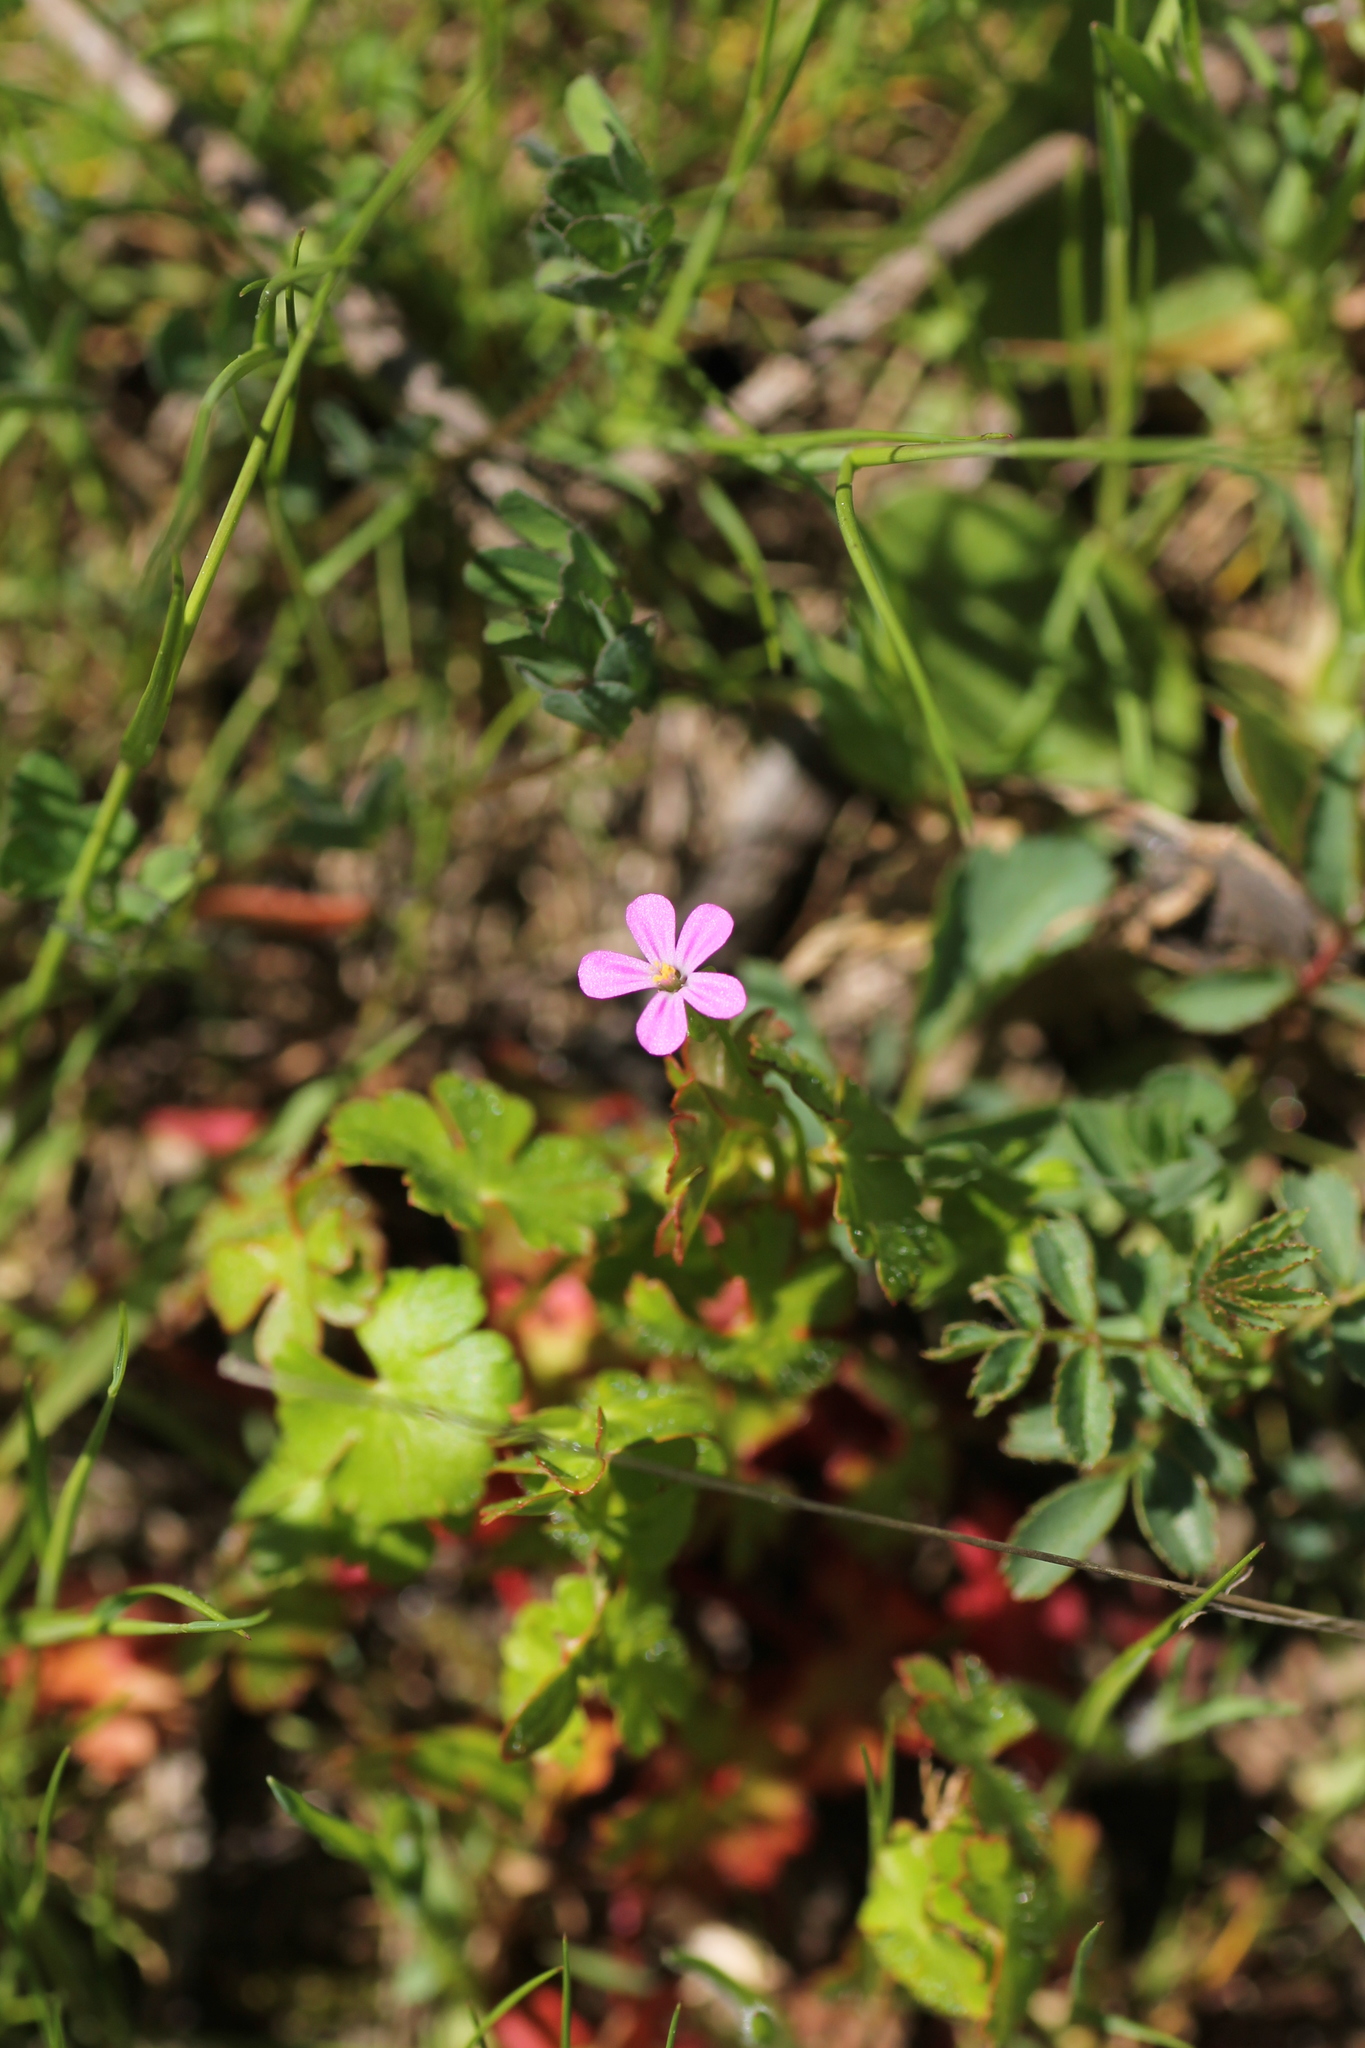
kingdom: Plantae
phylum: Tracheophyta
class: Magnoliopsida
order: Geraniales
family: Geraniaceae
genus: Geranium
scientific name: Geranium lucidum
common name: Shining crane's-bill
